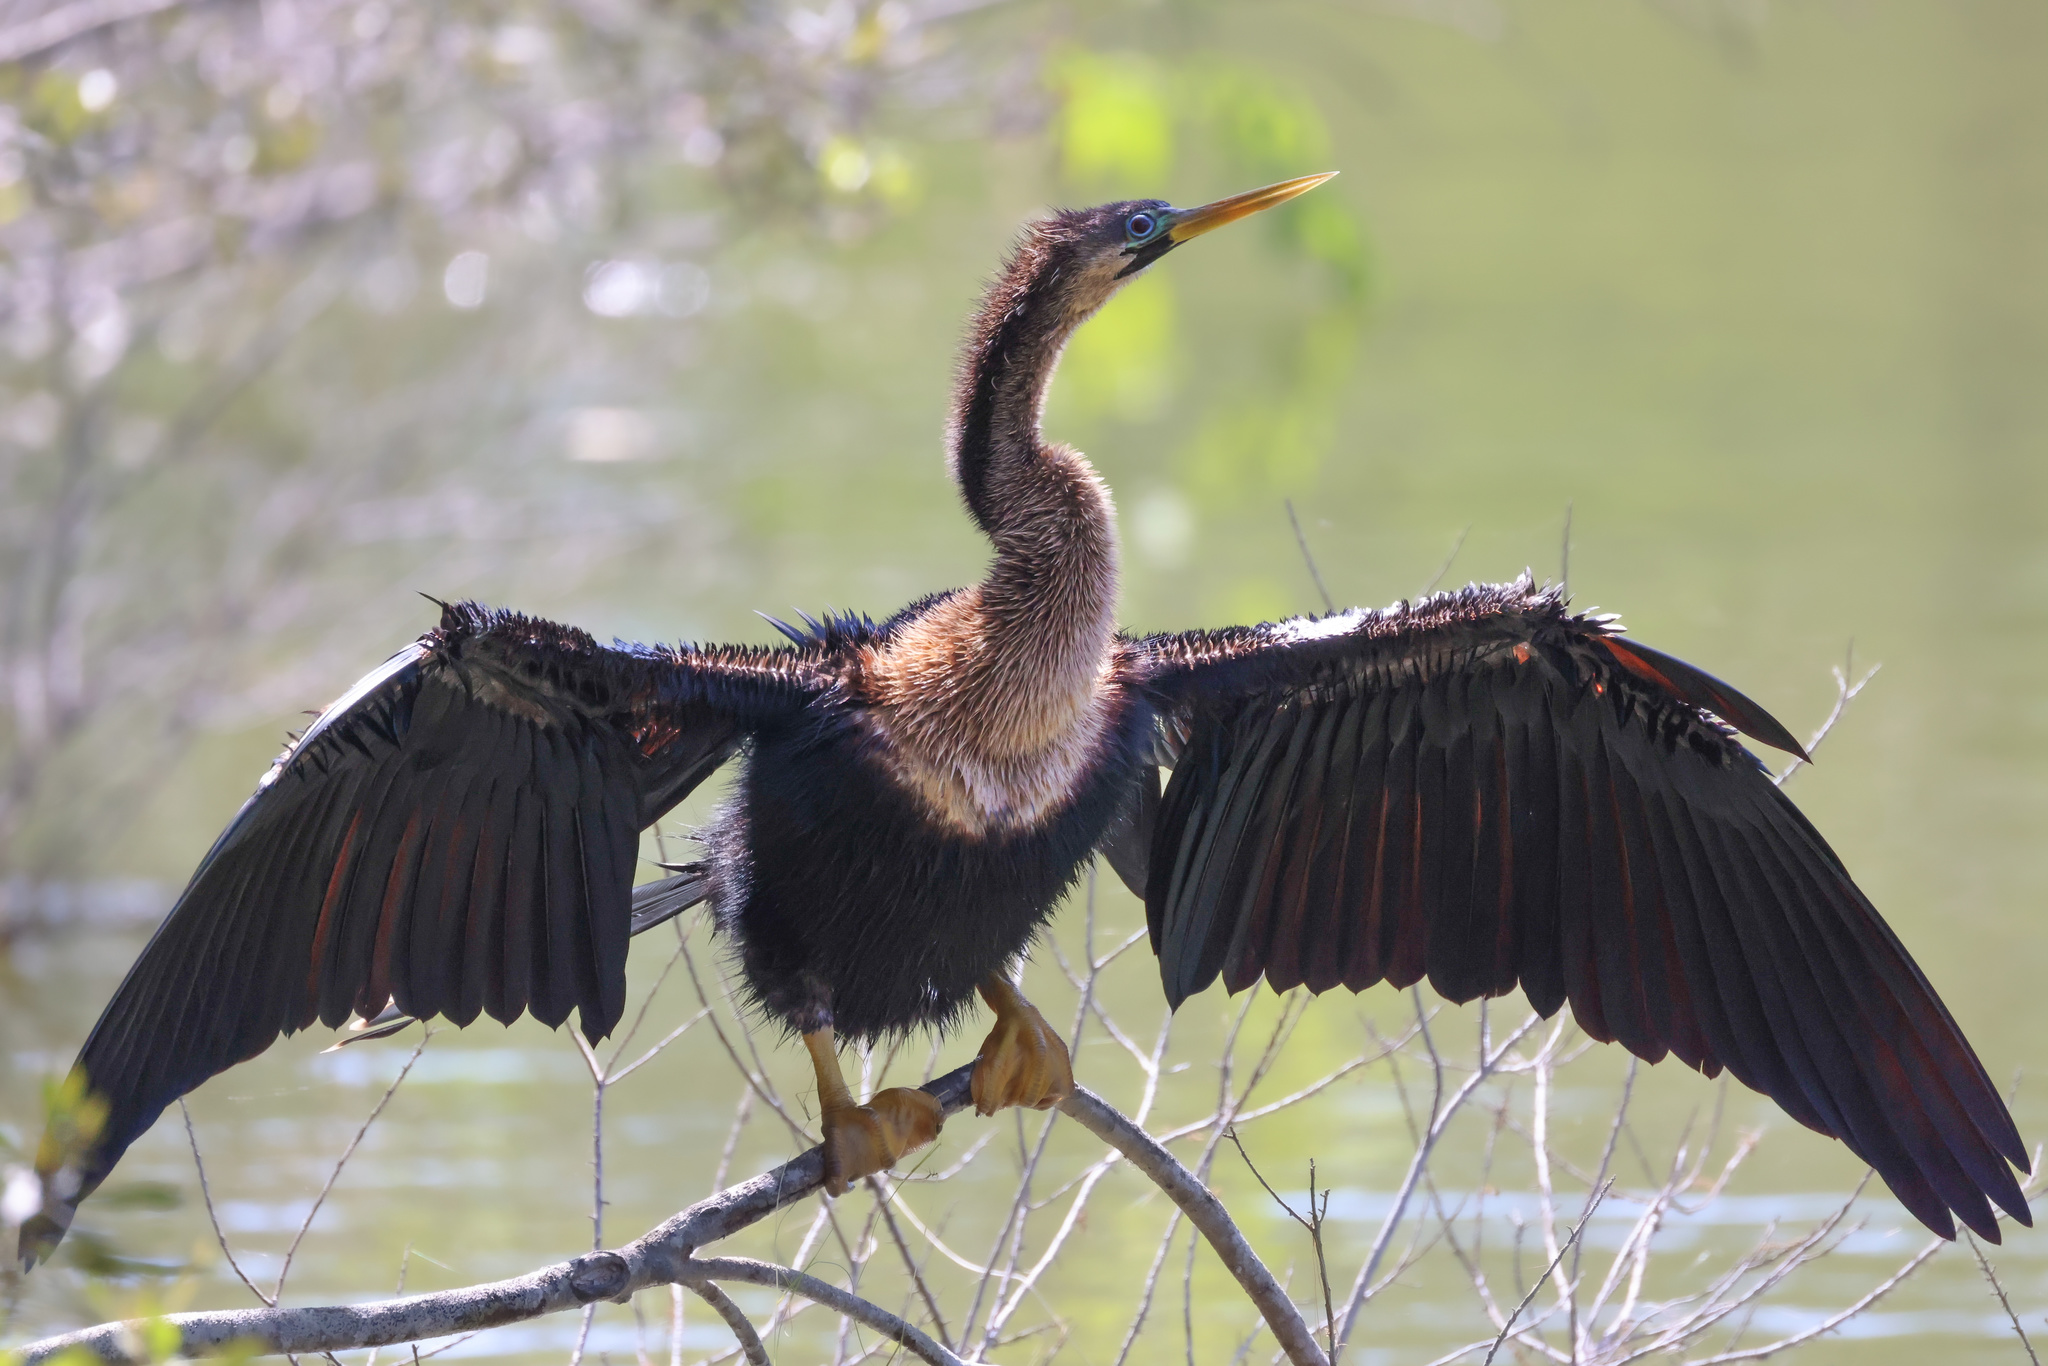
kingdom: Animalia
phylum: Chordata
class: Aves
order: Suliformes
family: Anhingidae
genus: Anhinga
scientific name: Anhinga anhinga
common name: Anhinga
